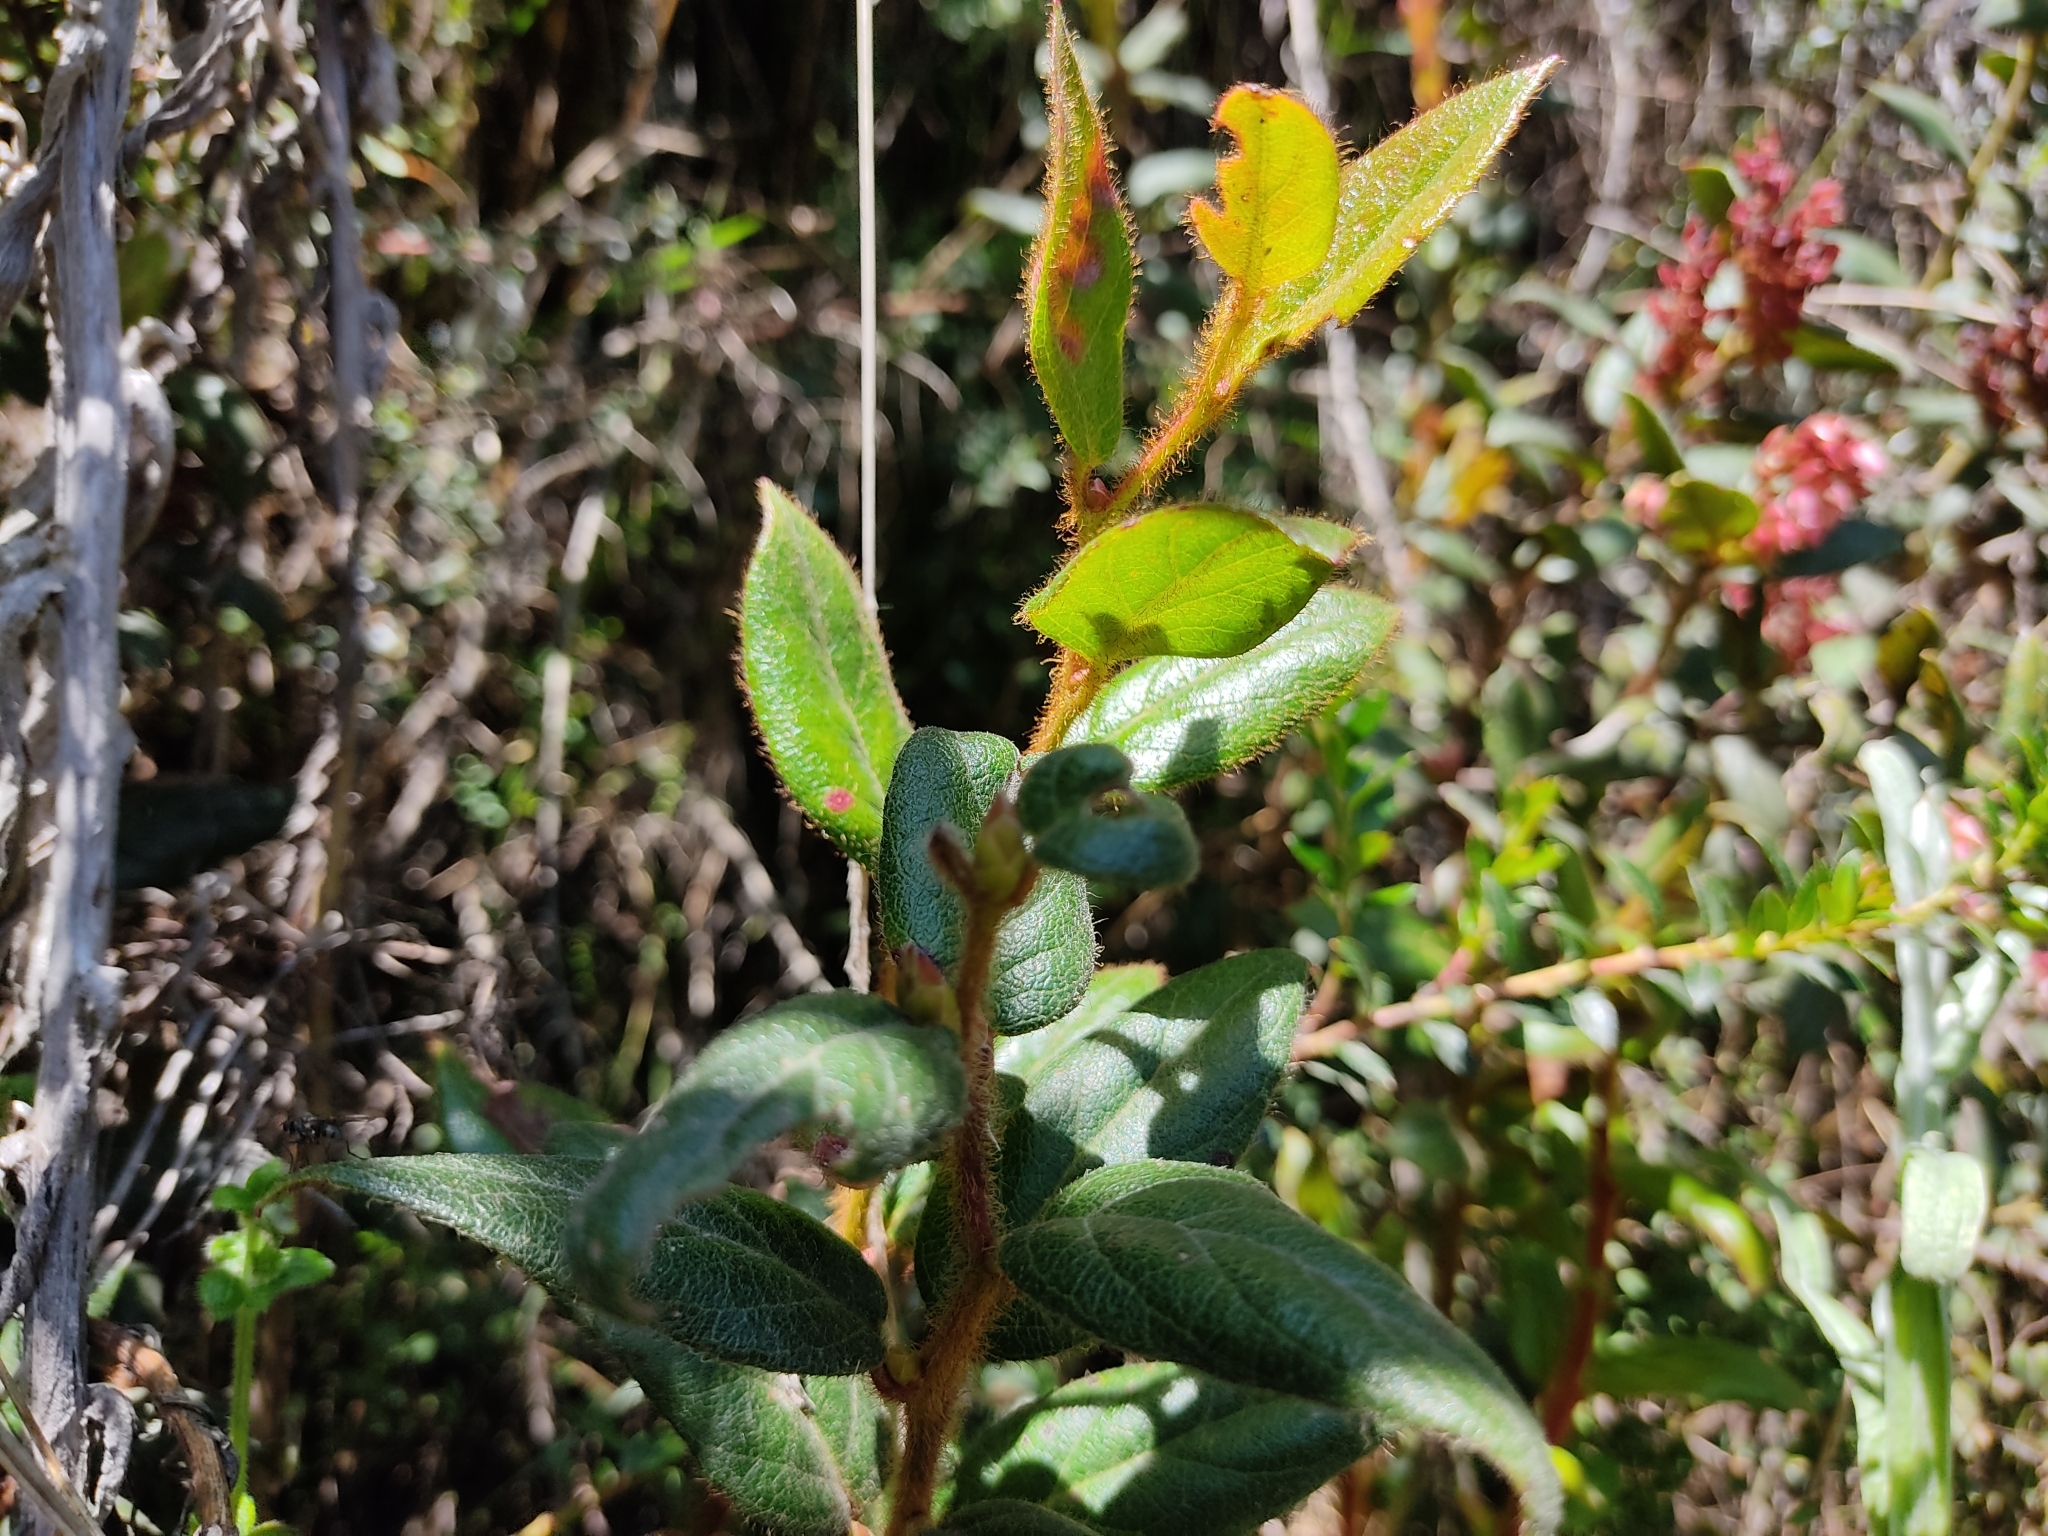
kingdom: Plantae
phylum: Tracheophyta
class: Magnoliopsida
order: Ericales
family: Ericaceae
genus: Gaultheria
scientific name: Gaultheria myrsinoides
